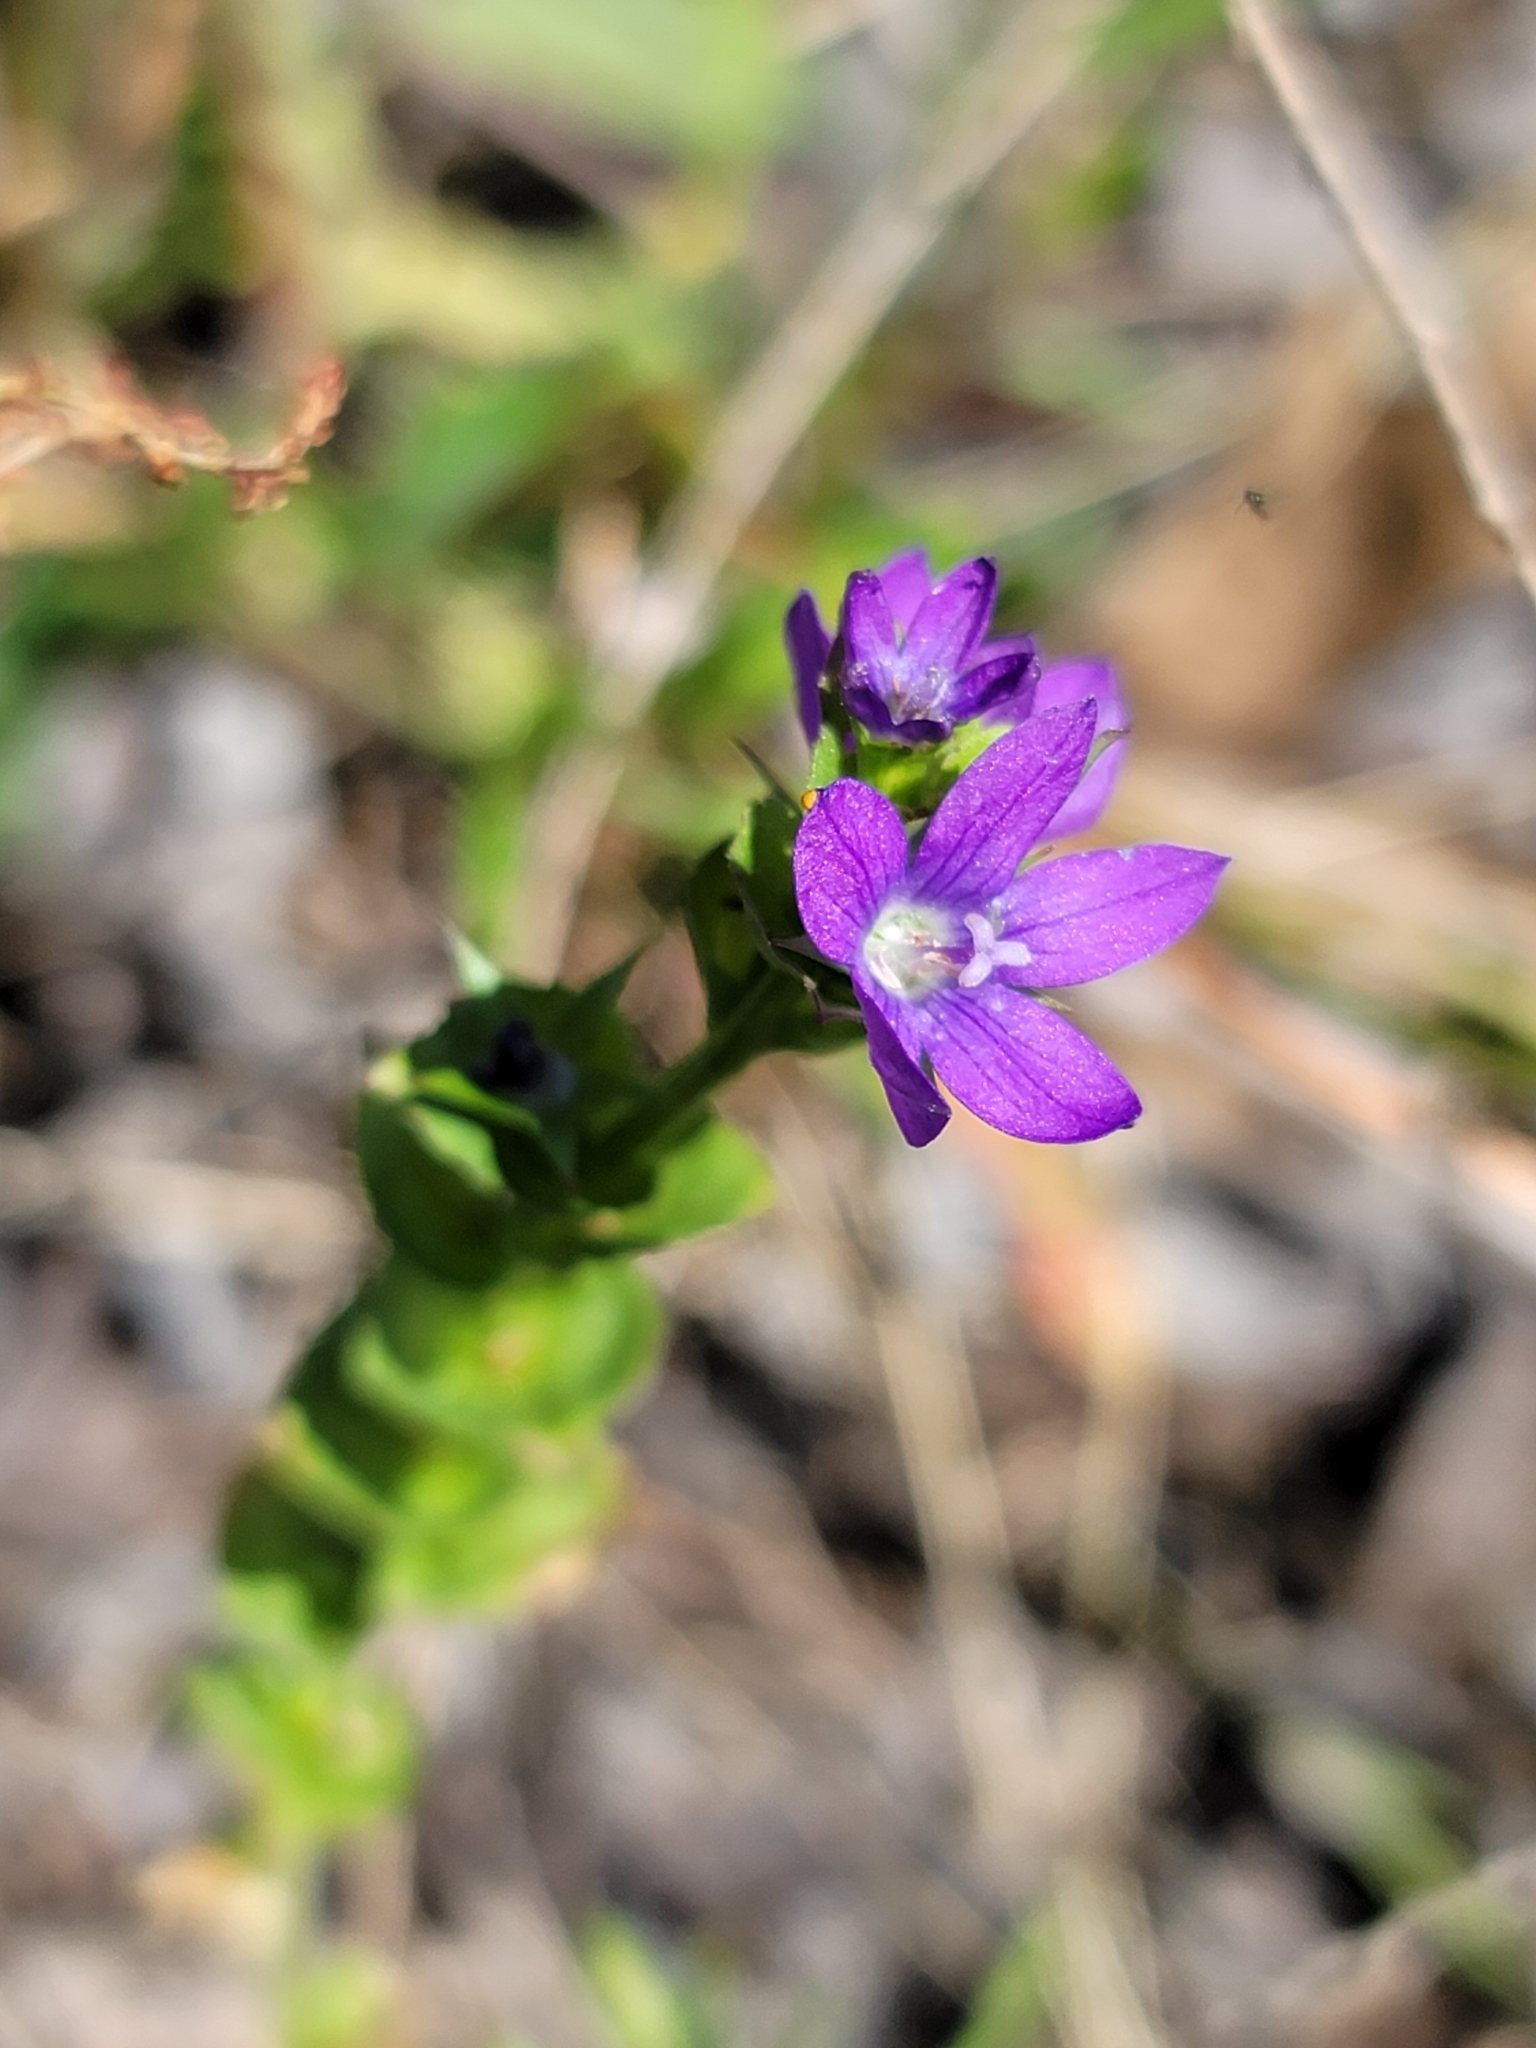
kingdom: Plantae
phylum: Tracheophyta
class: Magnoliopsida
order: Asterales
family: Campanulaceae
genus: Triodanis
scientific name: Triodanis perfoliata
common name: Clasping venus' looking-glass
